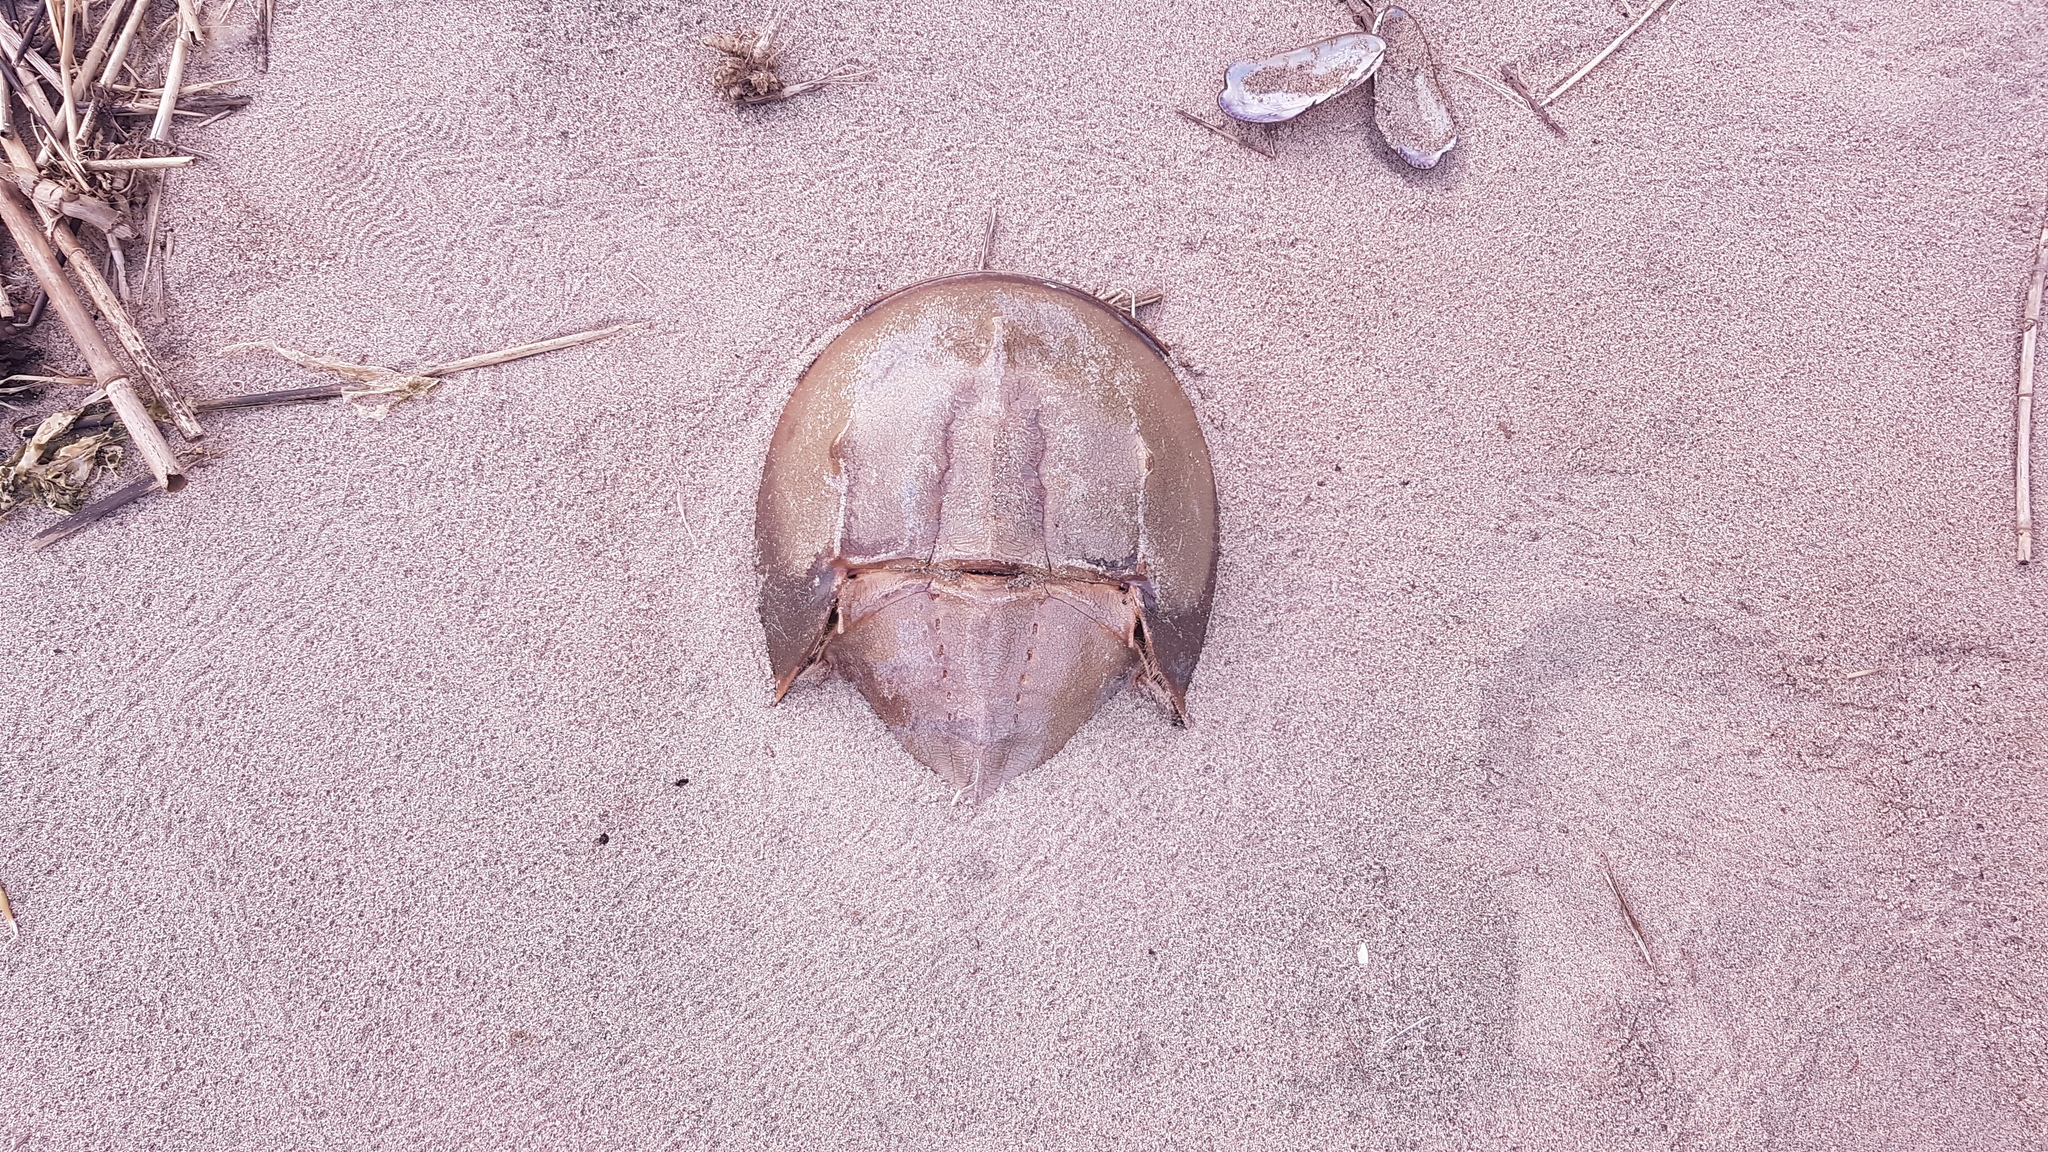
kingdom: Animalia
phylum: Arthropoda
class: Merostomata
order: Xiphosurida
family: Limulidae
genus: Limulus
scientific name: Limulus polyphemus
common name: Horseshoe crab
